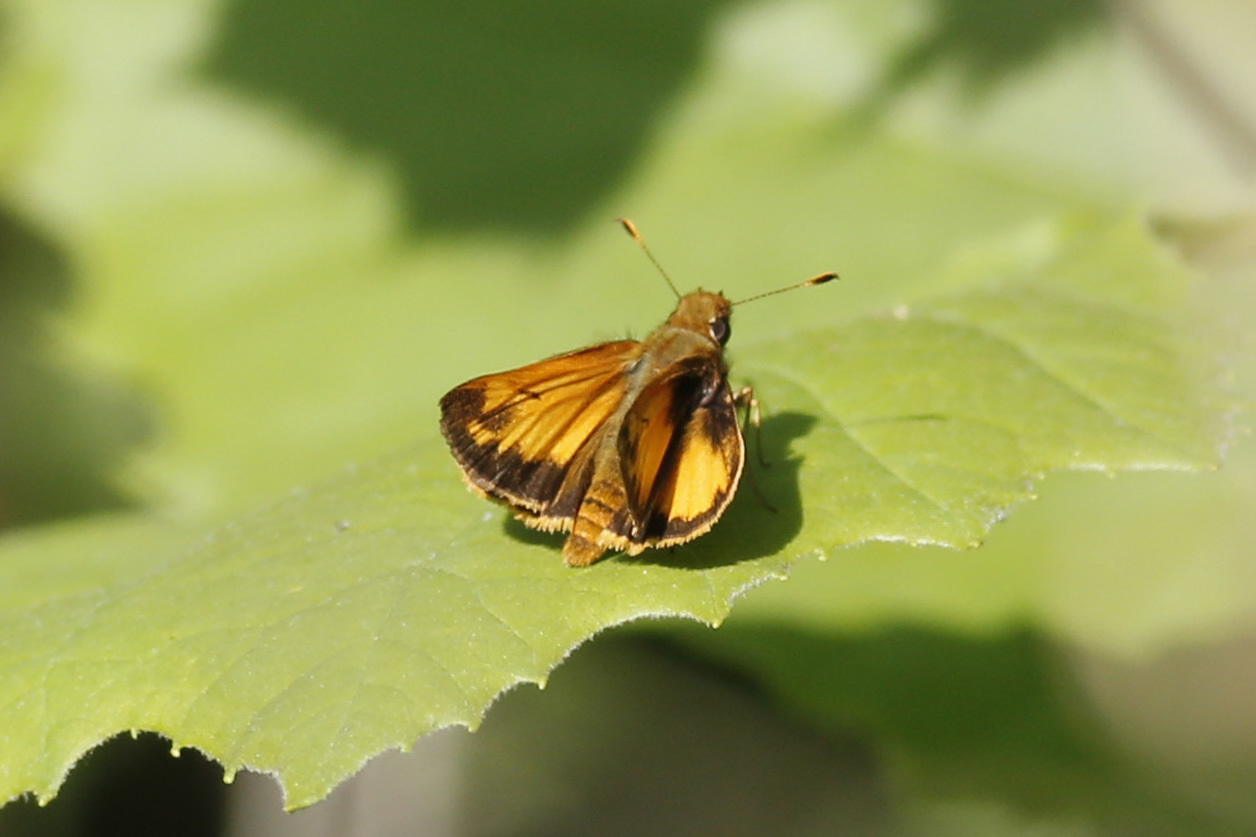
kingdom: Animalia
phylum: Arthropoda
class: Insecta
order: Lepidoptera
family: Hesperiidae
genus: Lon
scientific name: Lon zabulon
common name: Zabulon skipper
